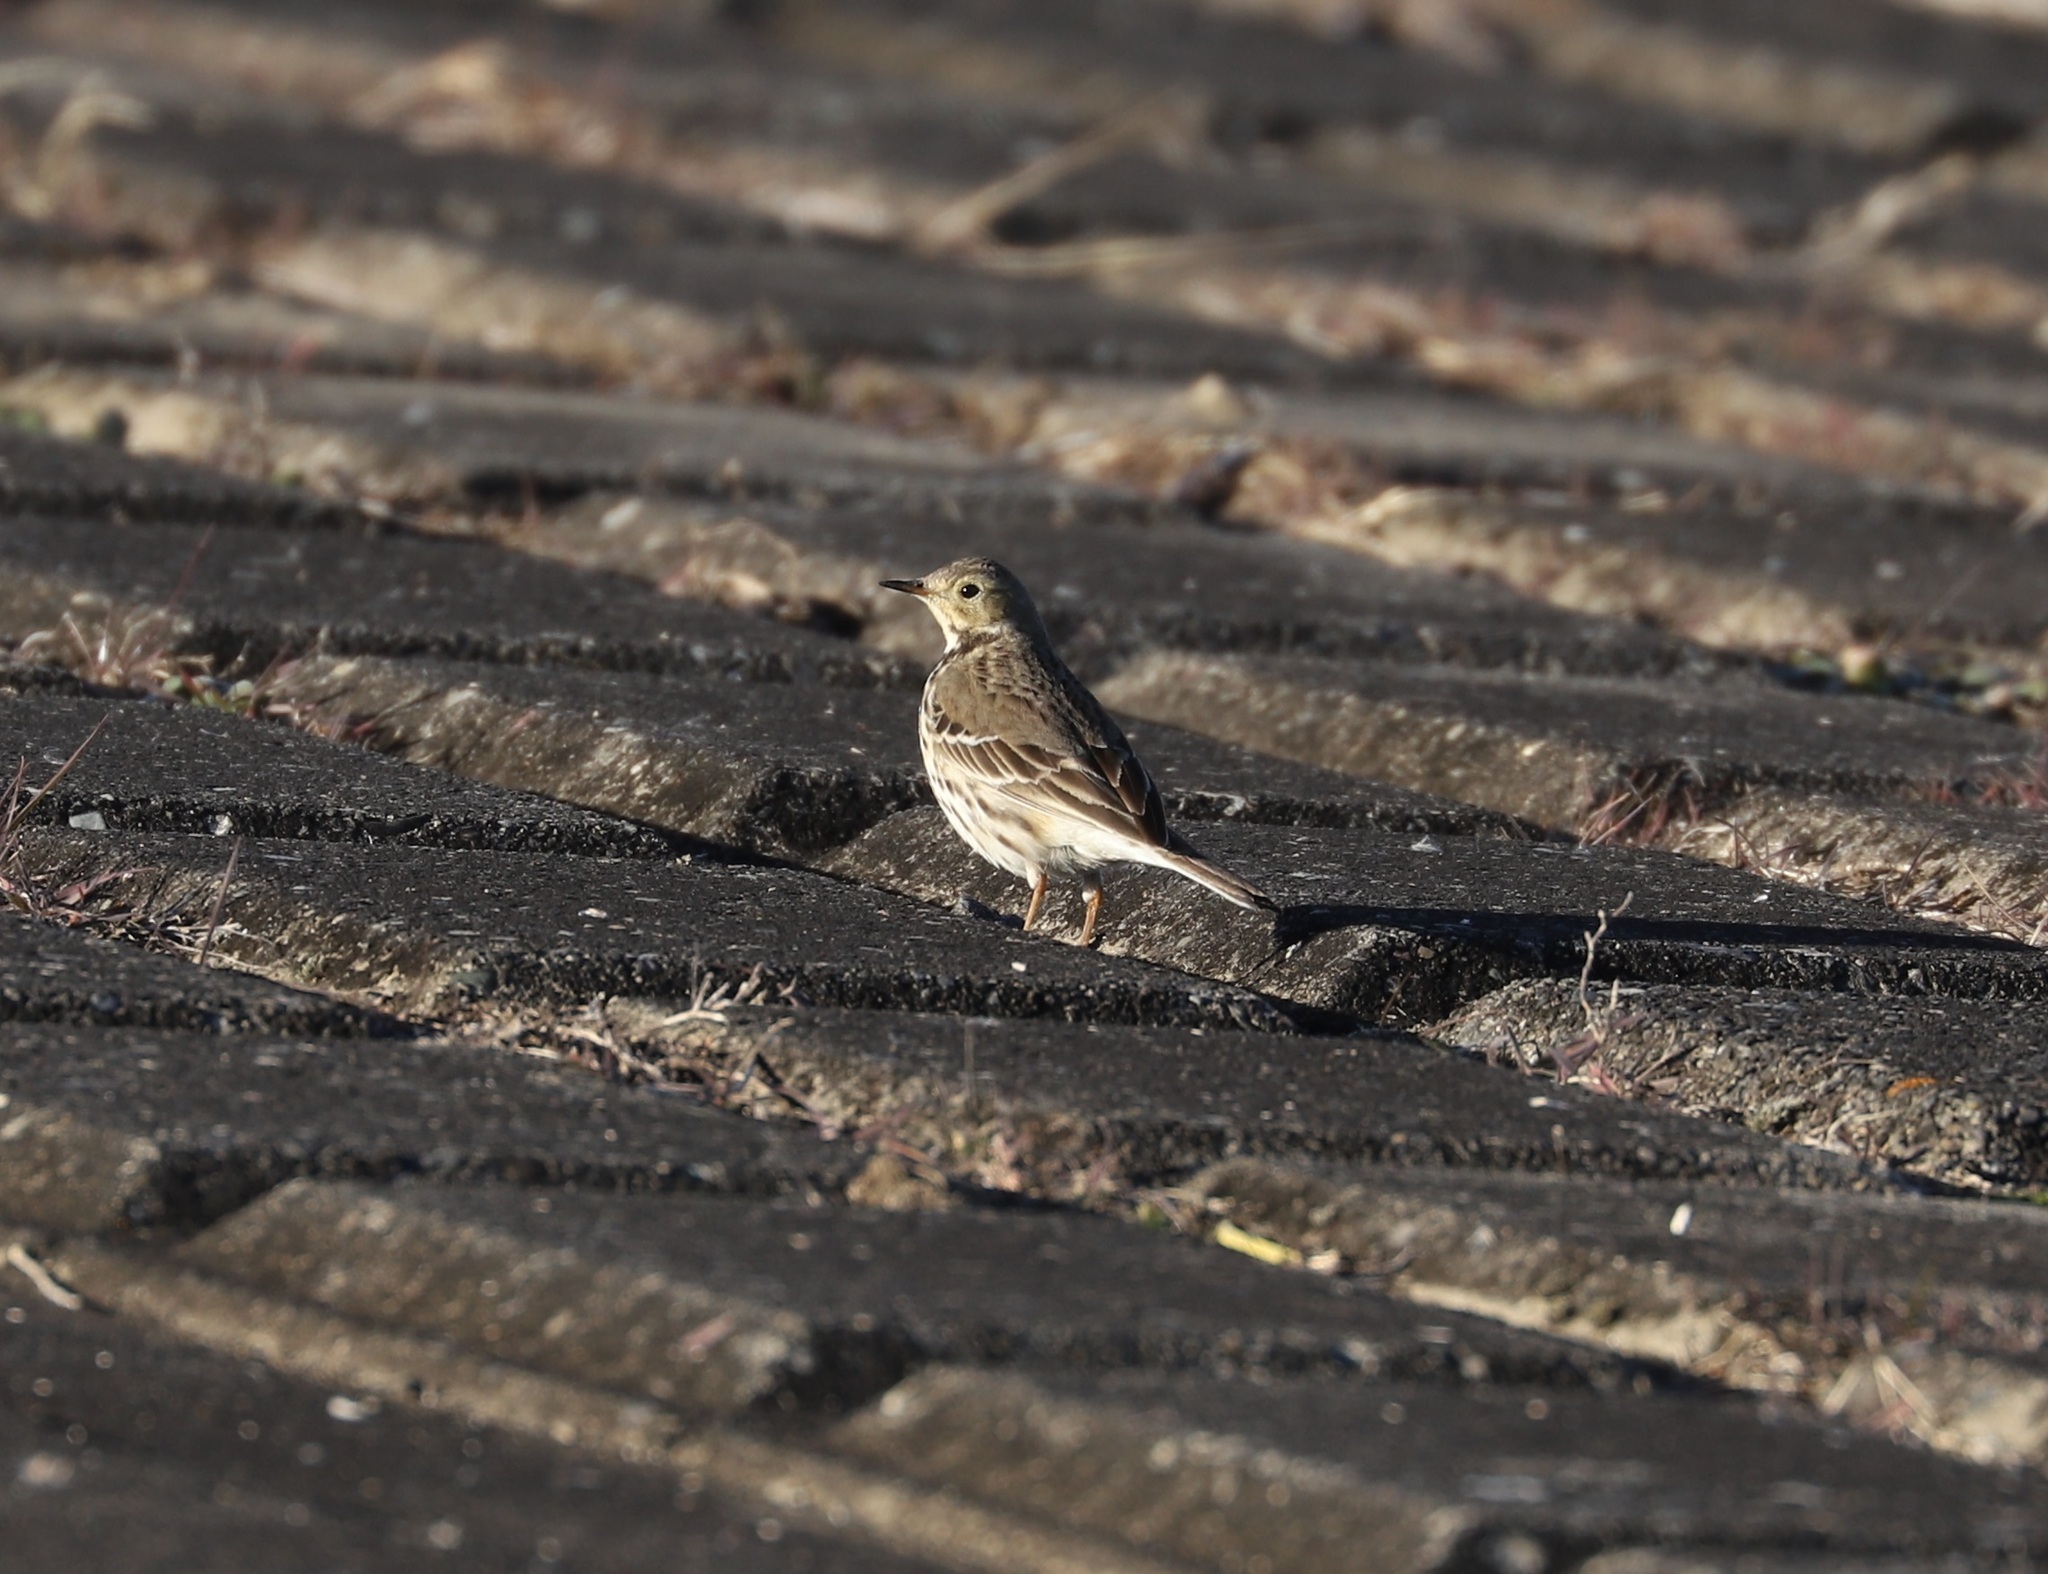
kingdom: Animalia
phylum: Chordata
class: Aves
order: Passeriformes
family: Motacillidae
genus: Anthus
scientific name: Anthus rubescens
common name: Buff-bellied pipit
